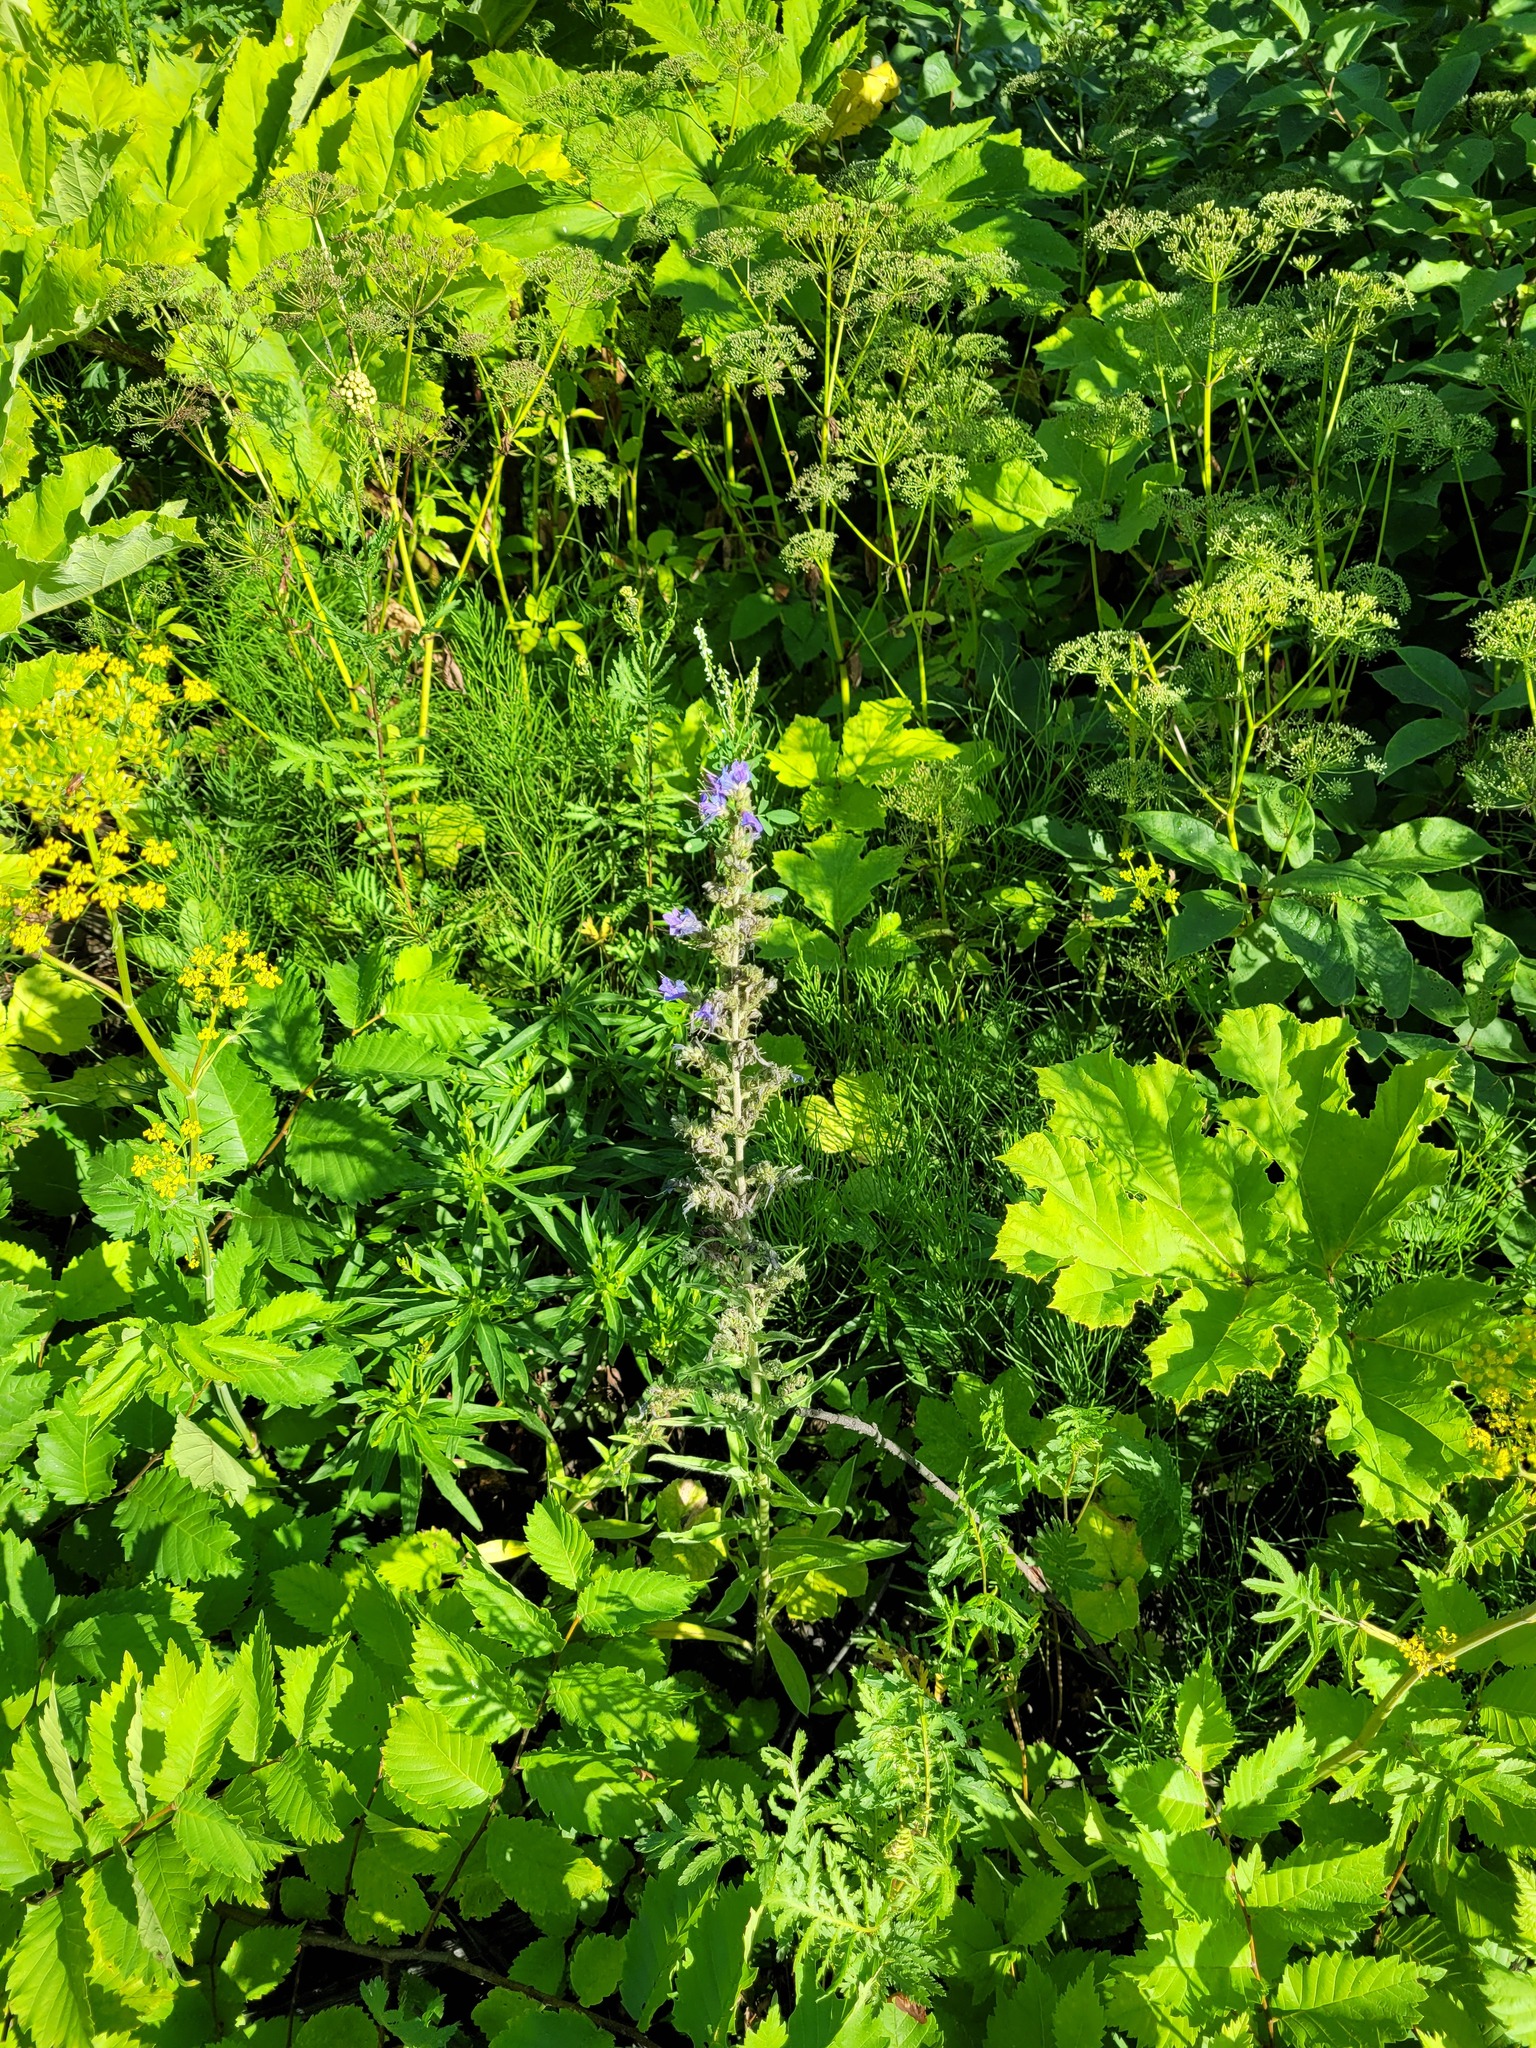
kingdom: Plantae
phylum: Tracheophyta
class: Magnoliopsida
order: Boraginales
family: Boraginaceae
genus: Echium
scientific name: Echium vulgare
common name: Common viper's bugloss
